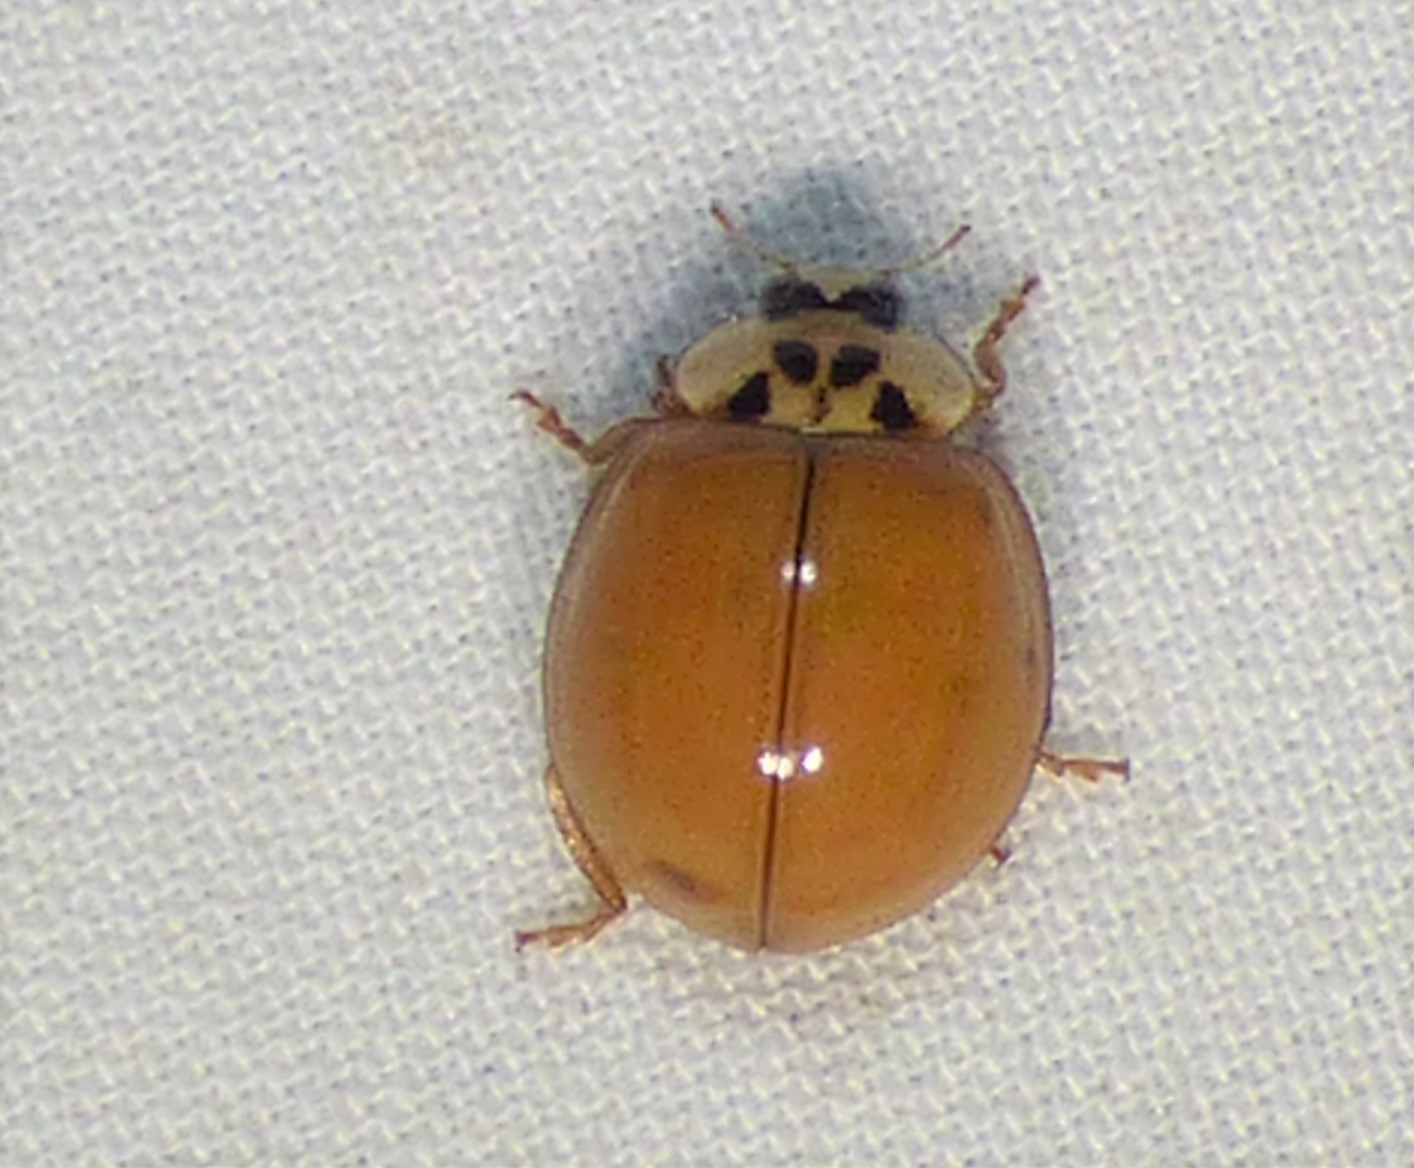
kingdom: Animalia
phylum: Arthropoda
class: Insecta
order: Coleoptera
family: Coccinellidae
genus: Harmonia
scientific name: Harmonia axyridis
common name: Harlequin ladybird
